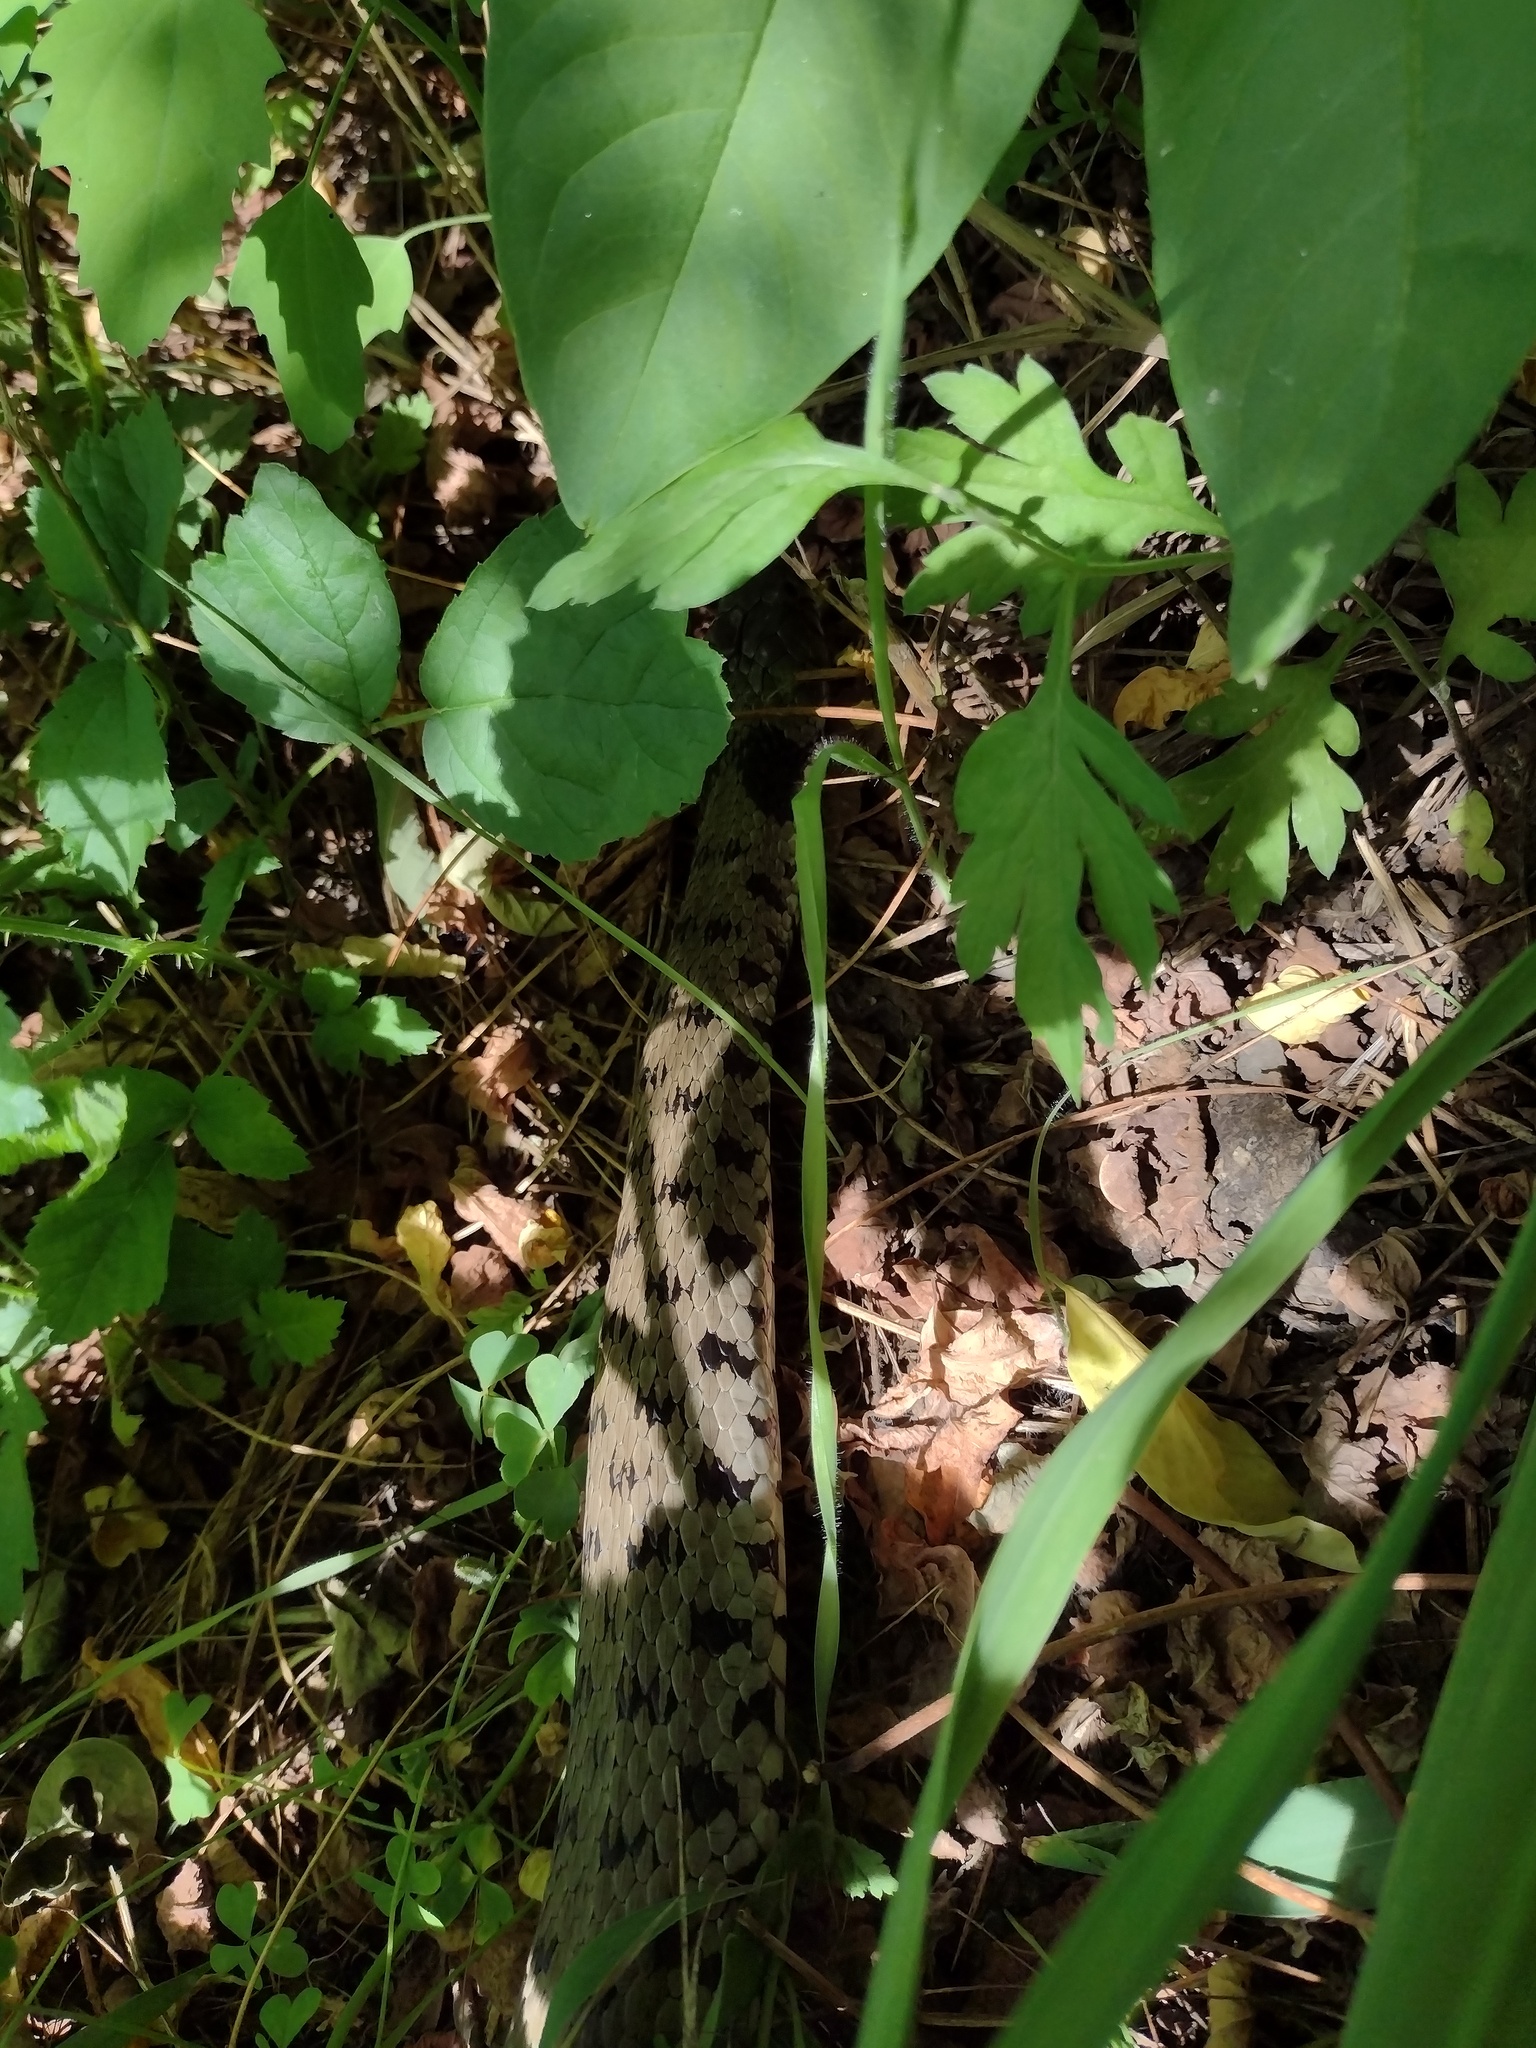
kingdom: Animalia
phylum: Chordata
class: Squamata
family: Colubridae
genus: Natrix
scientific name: Natrix helvetica
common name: Banded grass snake
